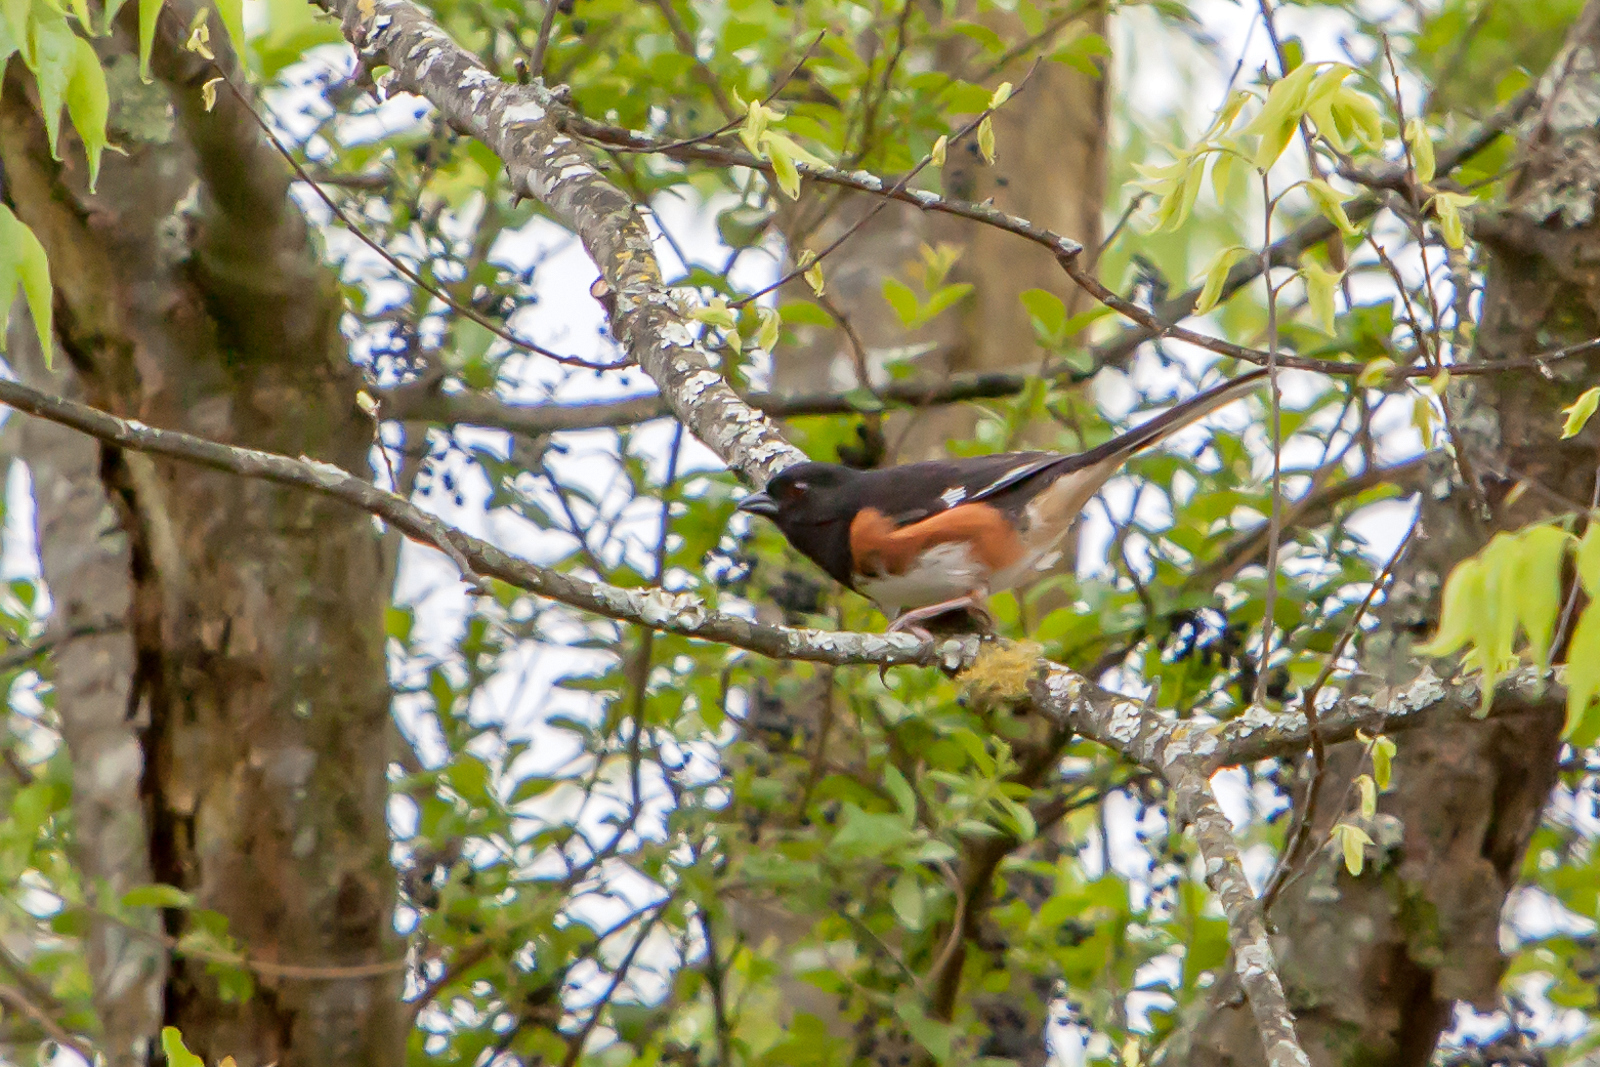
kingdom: Animalia
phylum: Chordata
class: Aves
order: Passeriformes
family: Passerellidae
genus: Pipilo
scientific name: Pipilo erythrophthalmus
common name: Eastern towhee
